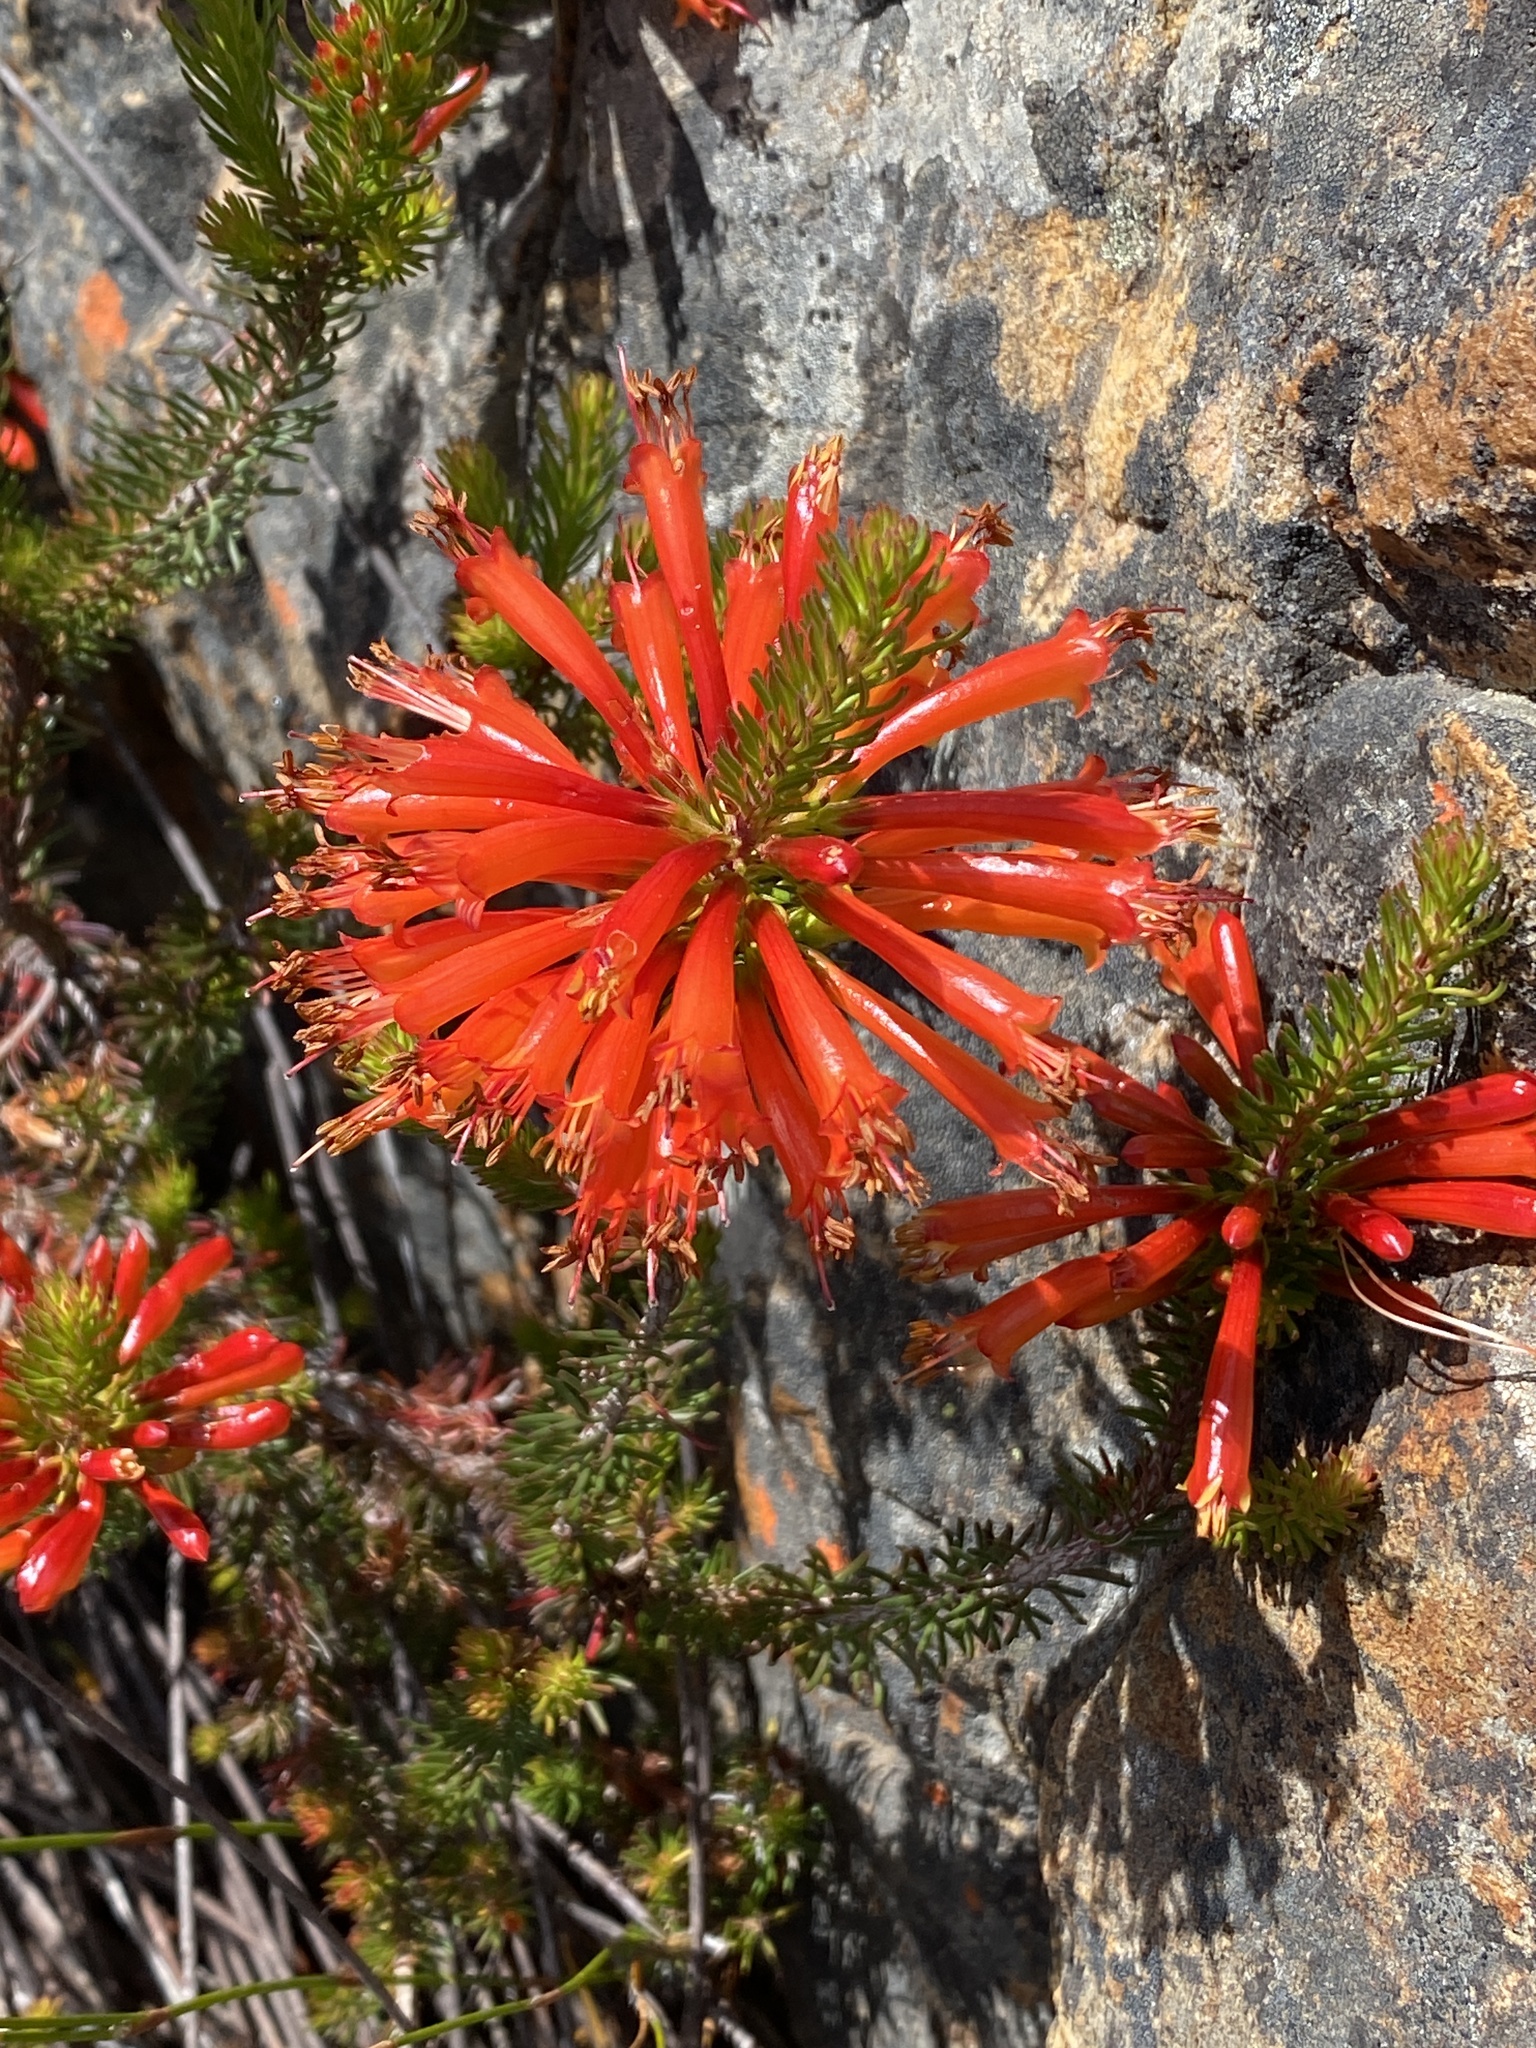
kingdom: Plantae
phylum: Tracheophyta
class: Magnoliopsida
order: Ericales
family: Ericaceae
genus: Erica
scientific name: Erica grandiflora
